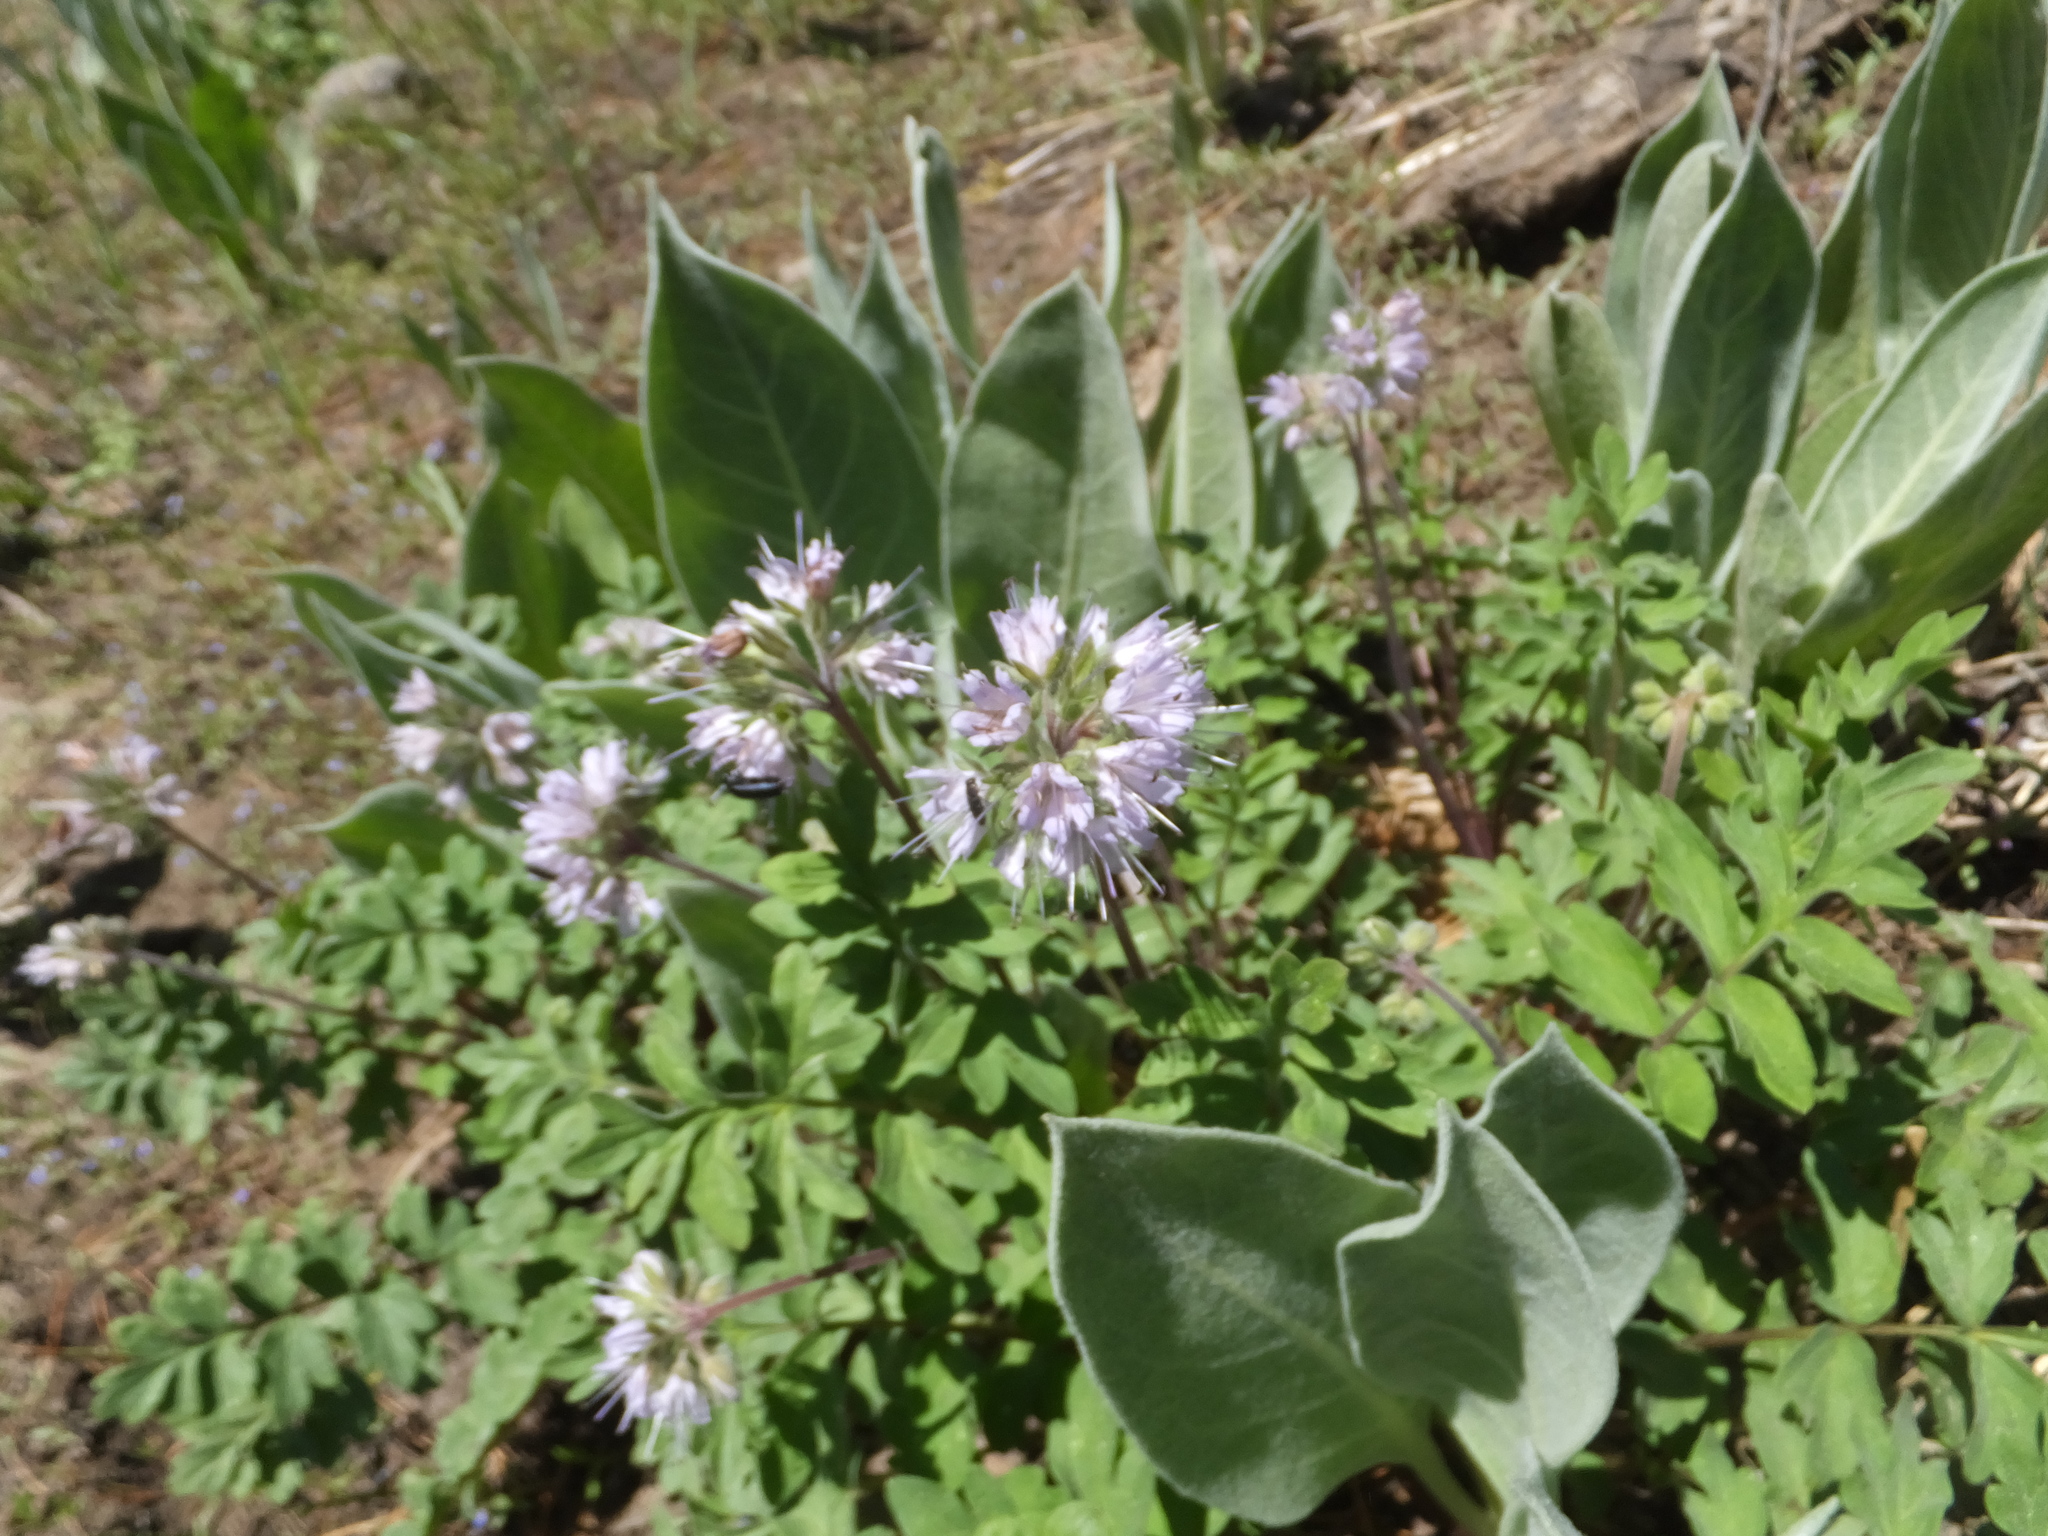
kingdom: Plantae
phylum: Tracheophyta
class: Magnoliopsida
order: Boraginales
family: Hydrophyllaceae
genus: Hydrophyllum
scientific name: Hydrophyllum occidentale
